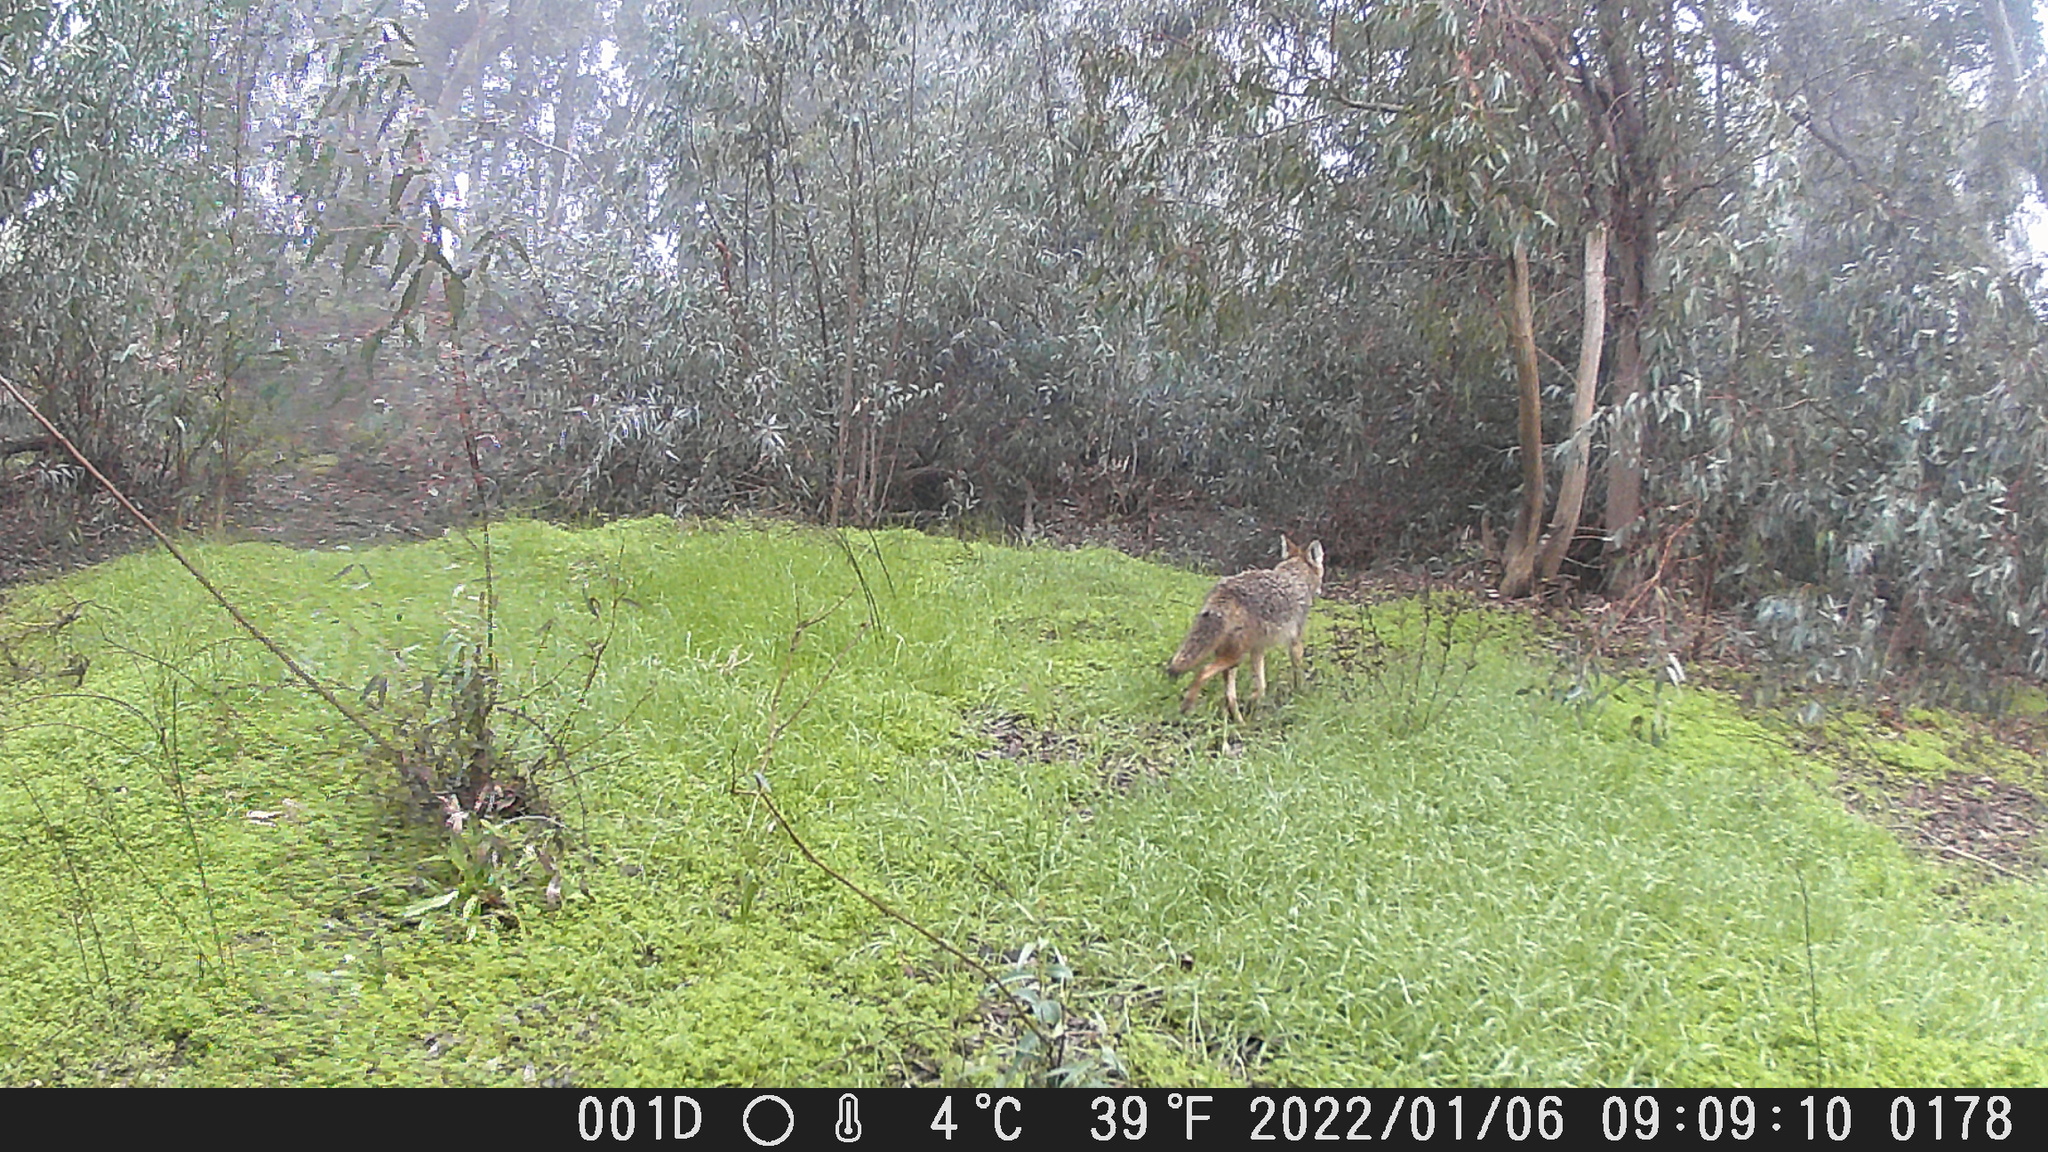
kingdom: Animalia
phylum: Chordata
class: Mammalia
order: Carnivora
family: Canidae
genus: Canis
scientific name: Canis latrans
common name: Coyote
